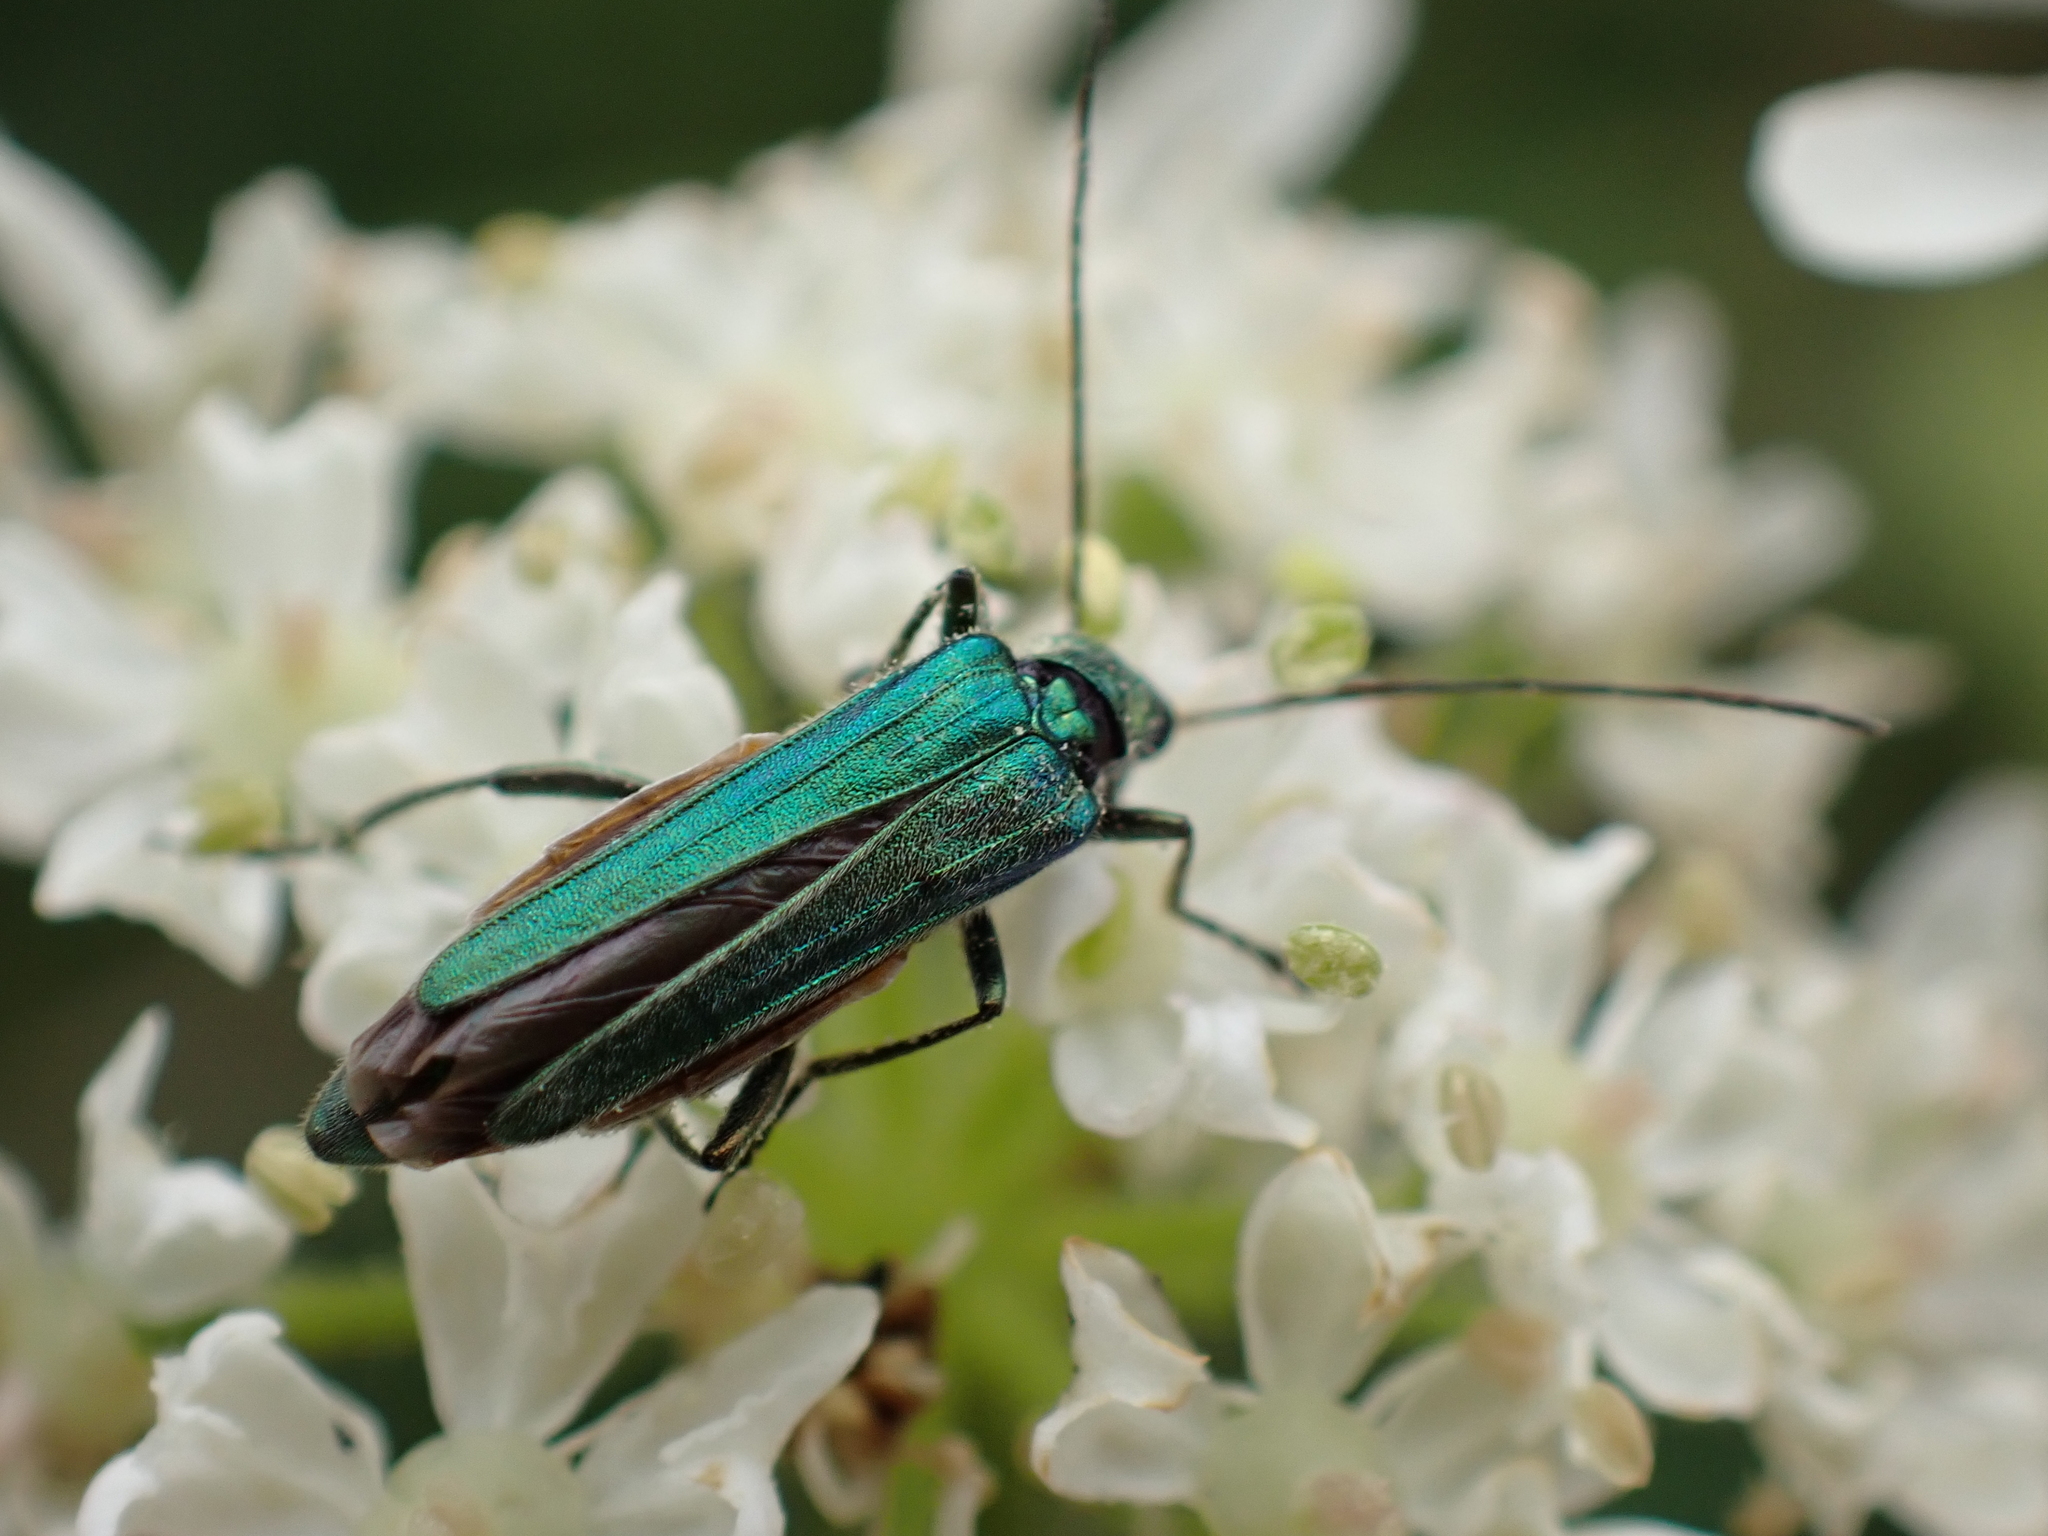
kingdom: Animalia
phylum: Arthropoda
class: Insecta
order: Coleoptera
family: Oedemeridae
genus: Oedemera
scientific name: Oedemera nobilis
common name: Swollen-thighed beetle
